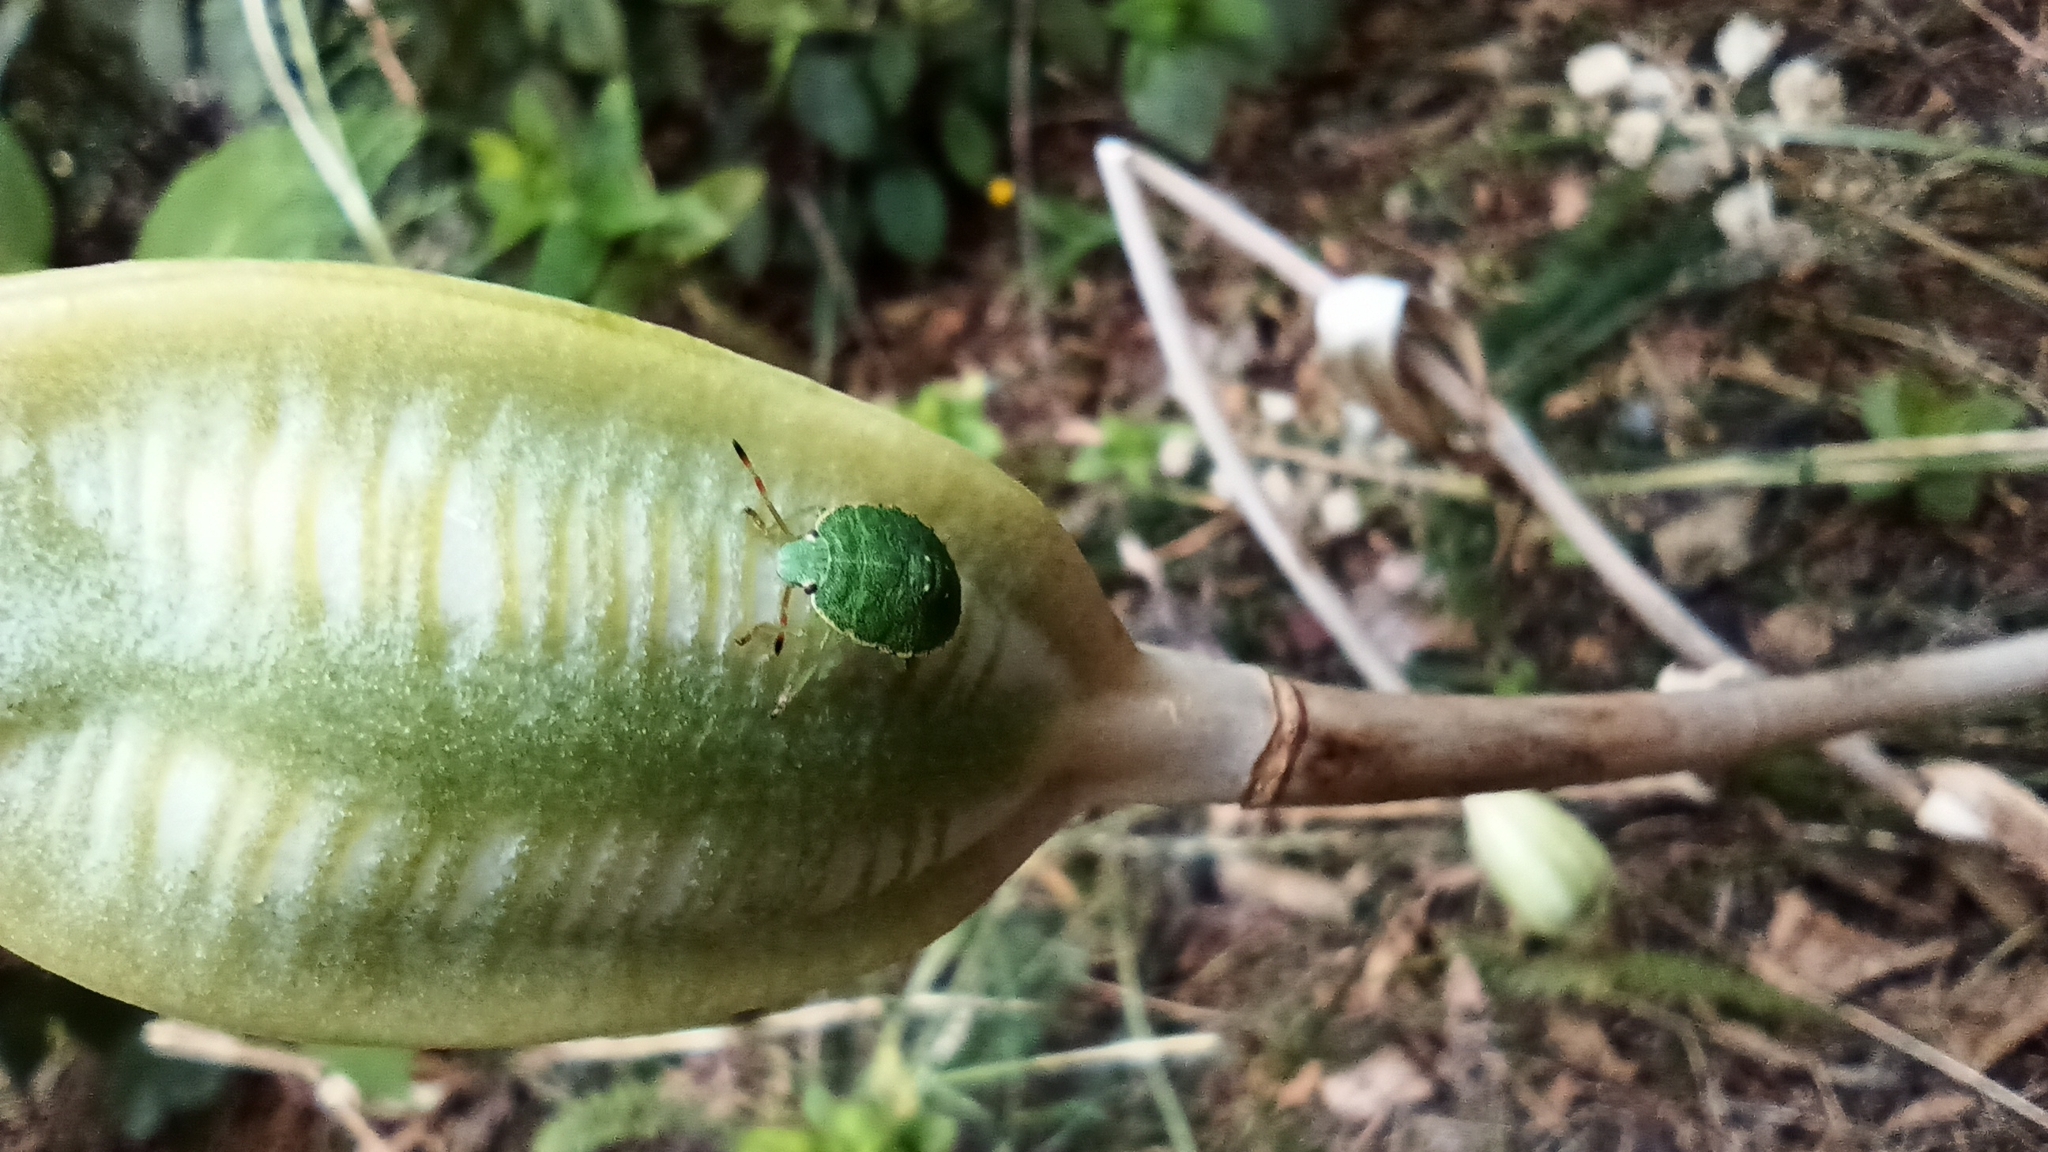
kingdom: Animalia
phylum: Arthropoda
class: Insecta
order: Hemiptera
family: Pentatomidae
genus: Palomena
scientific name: Palomena prasina
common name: Green shieldbug
